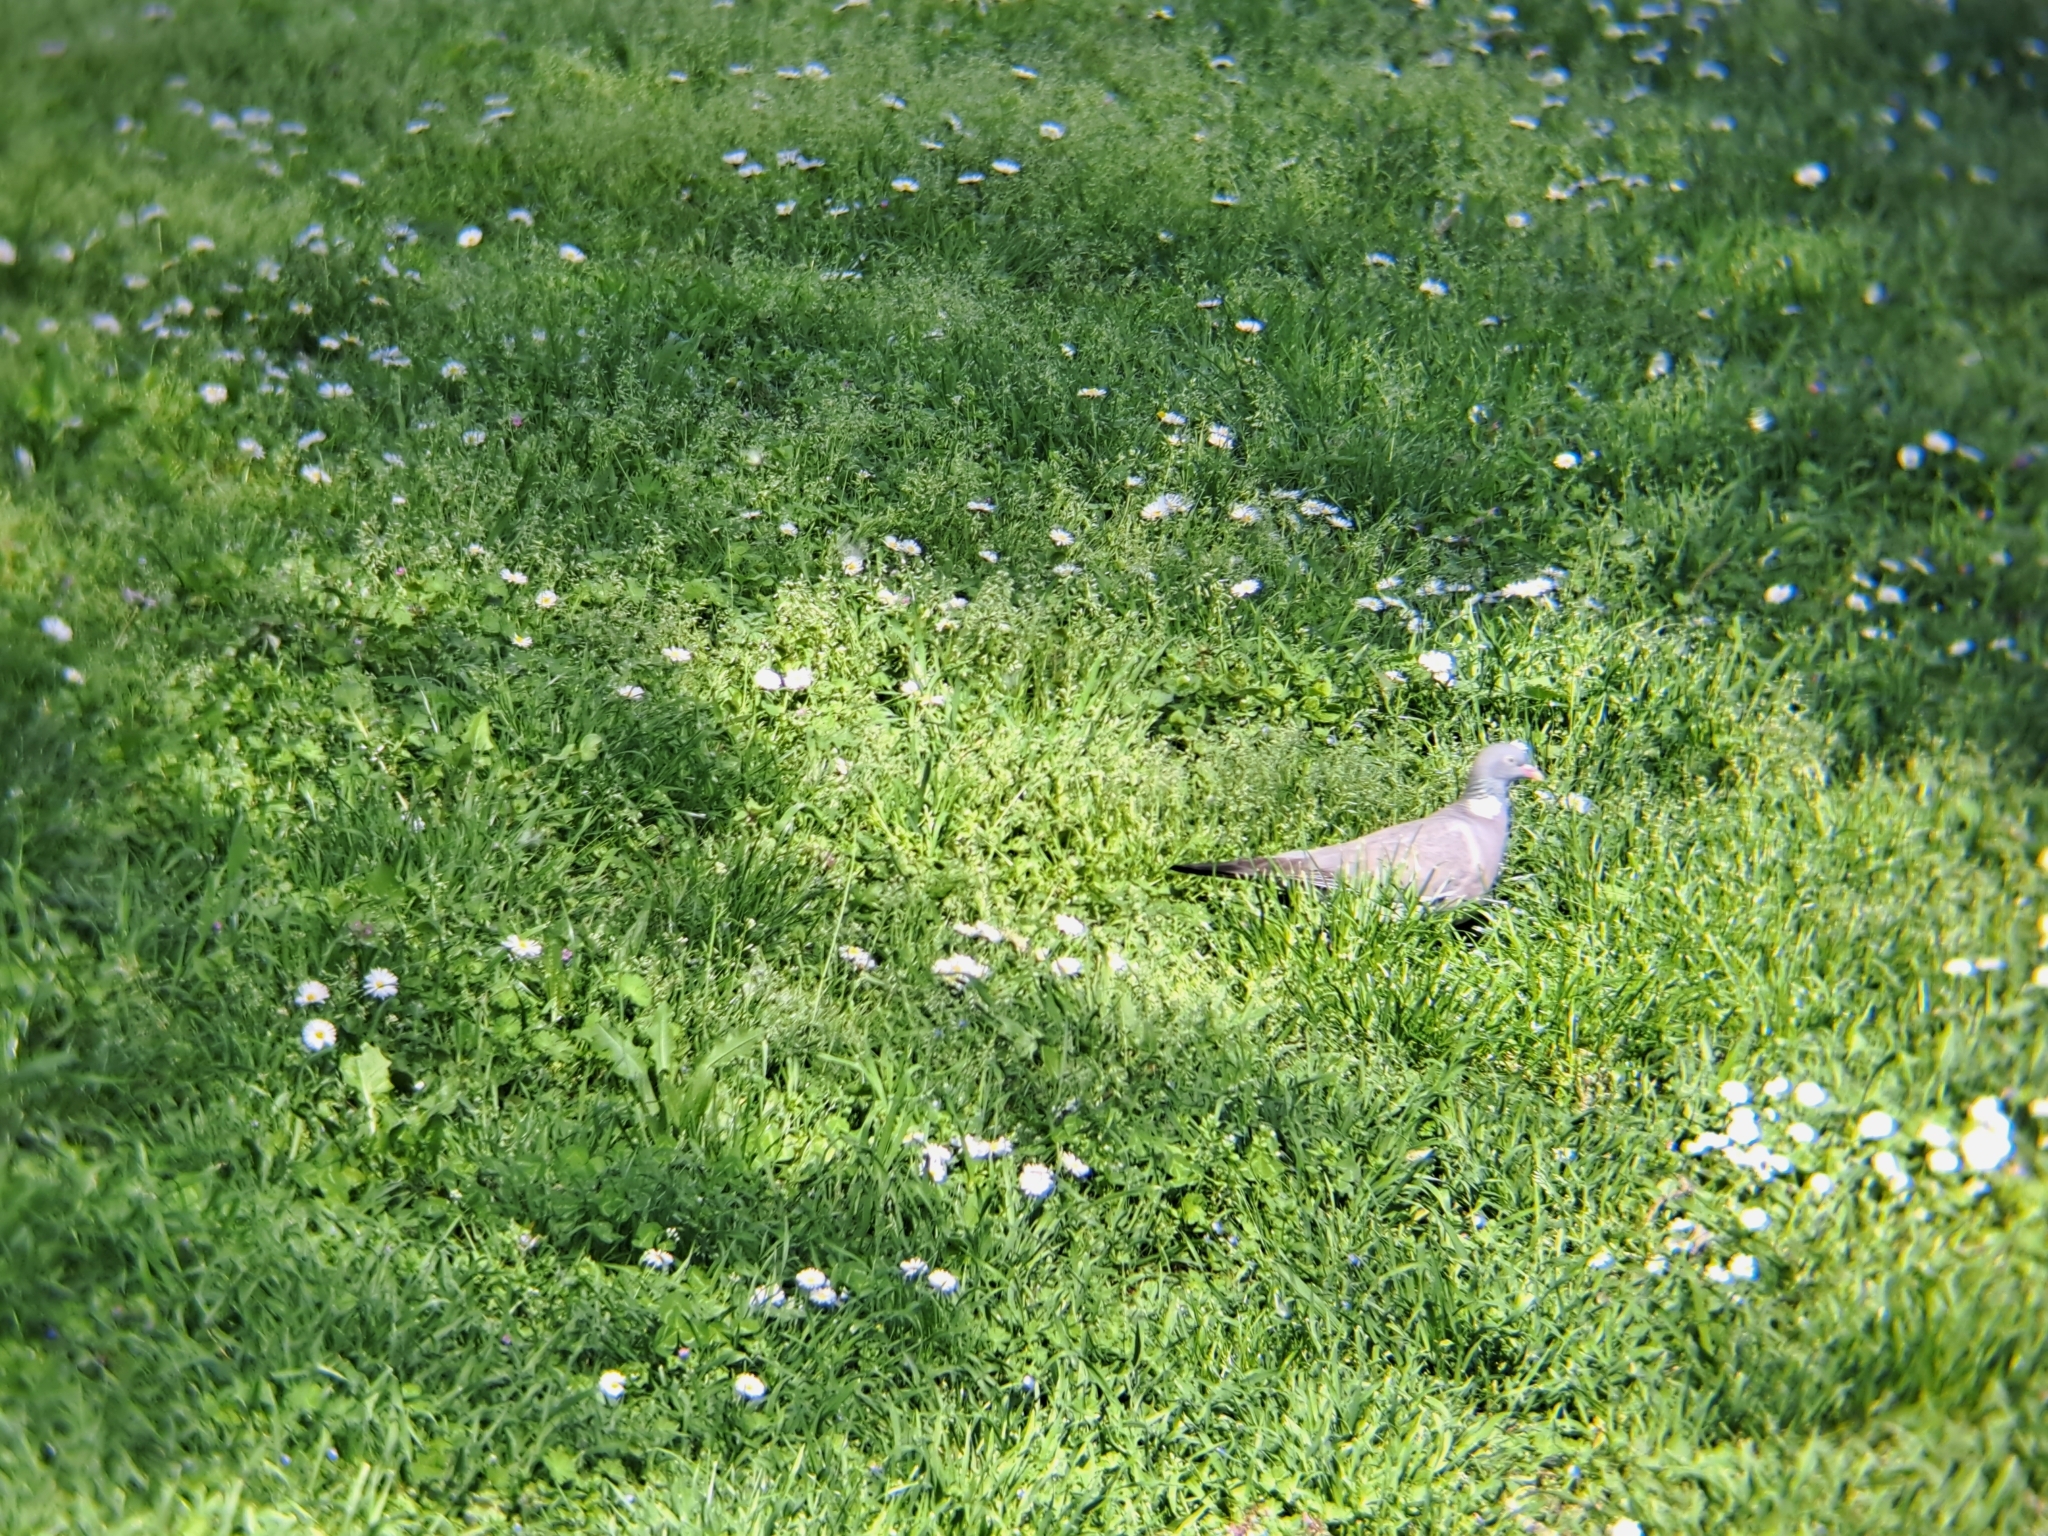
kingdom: Animalia
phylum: Chordata
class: Aves
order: Columbiformes
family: Columbidae
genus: Columba
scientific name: Columba palumbus
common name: Common wood pigeon
